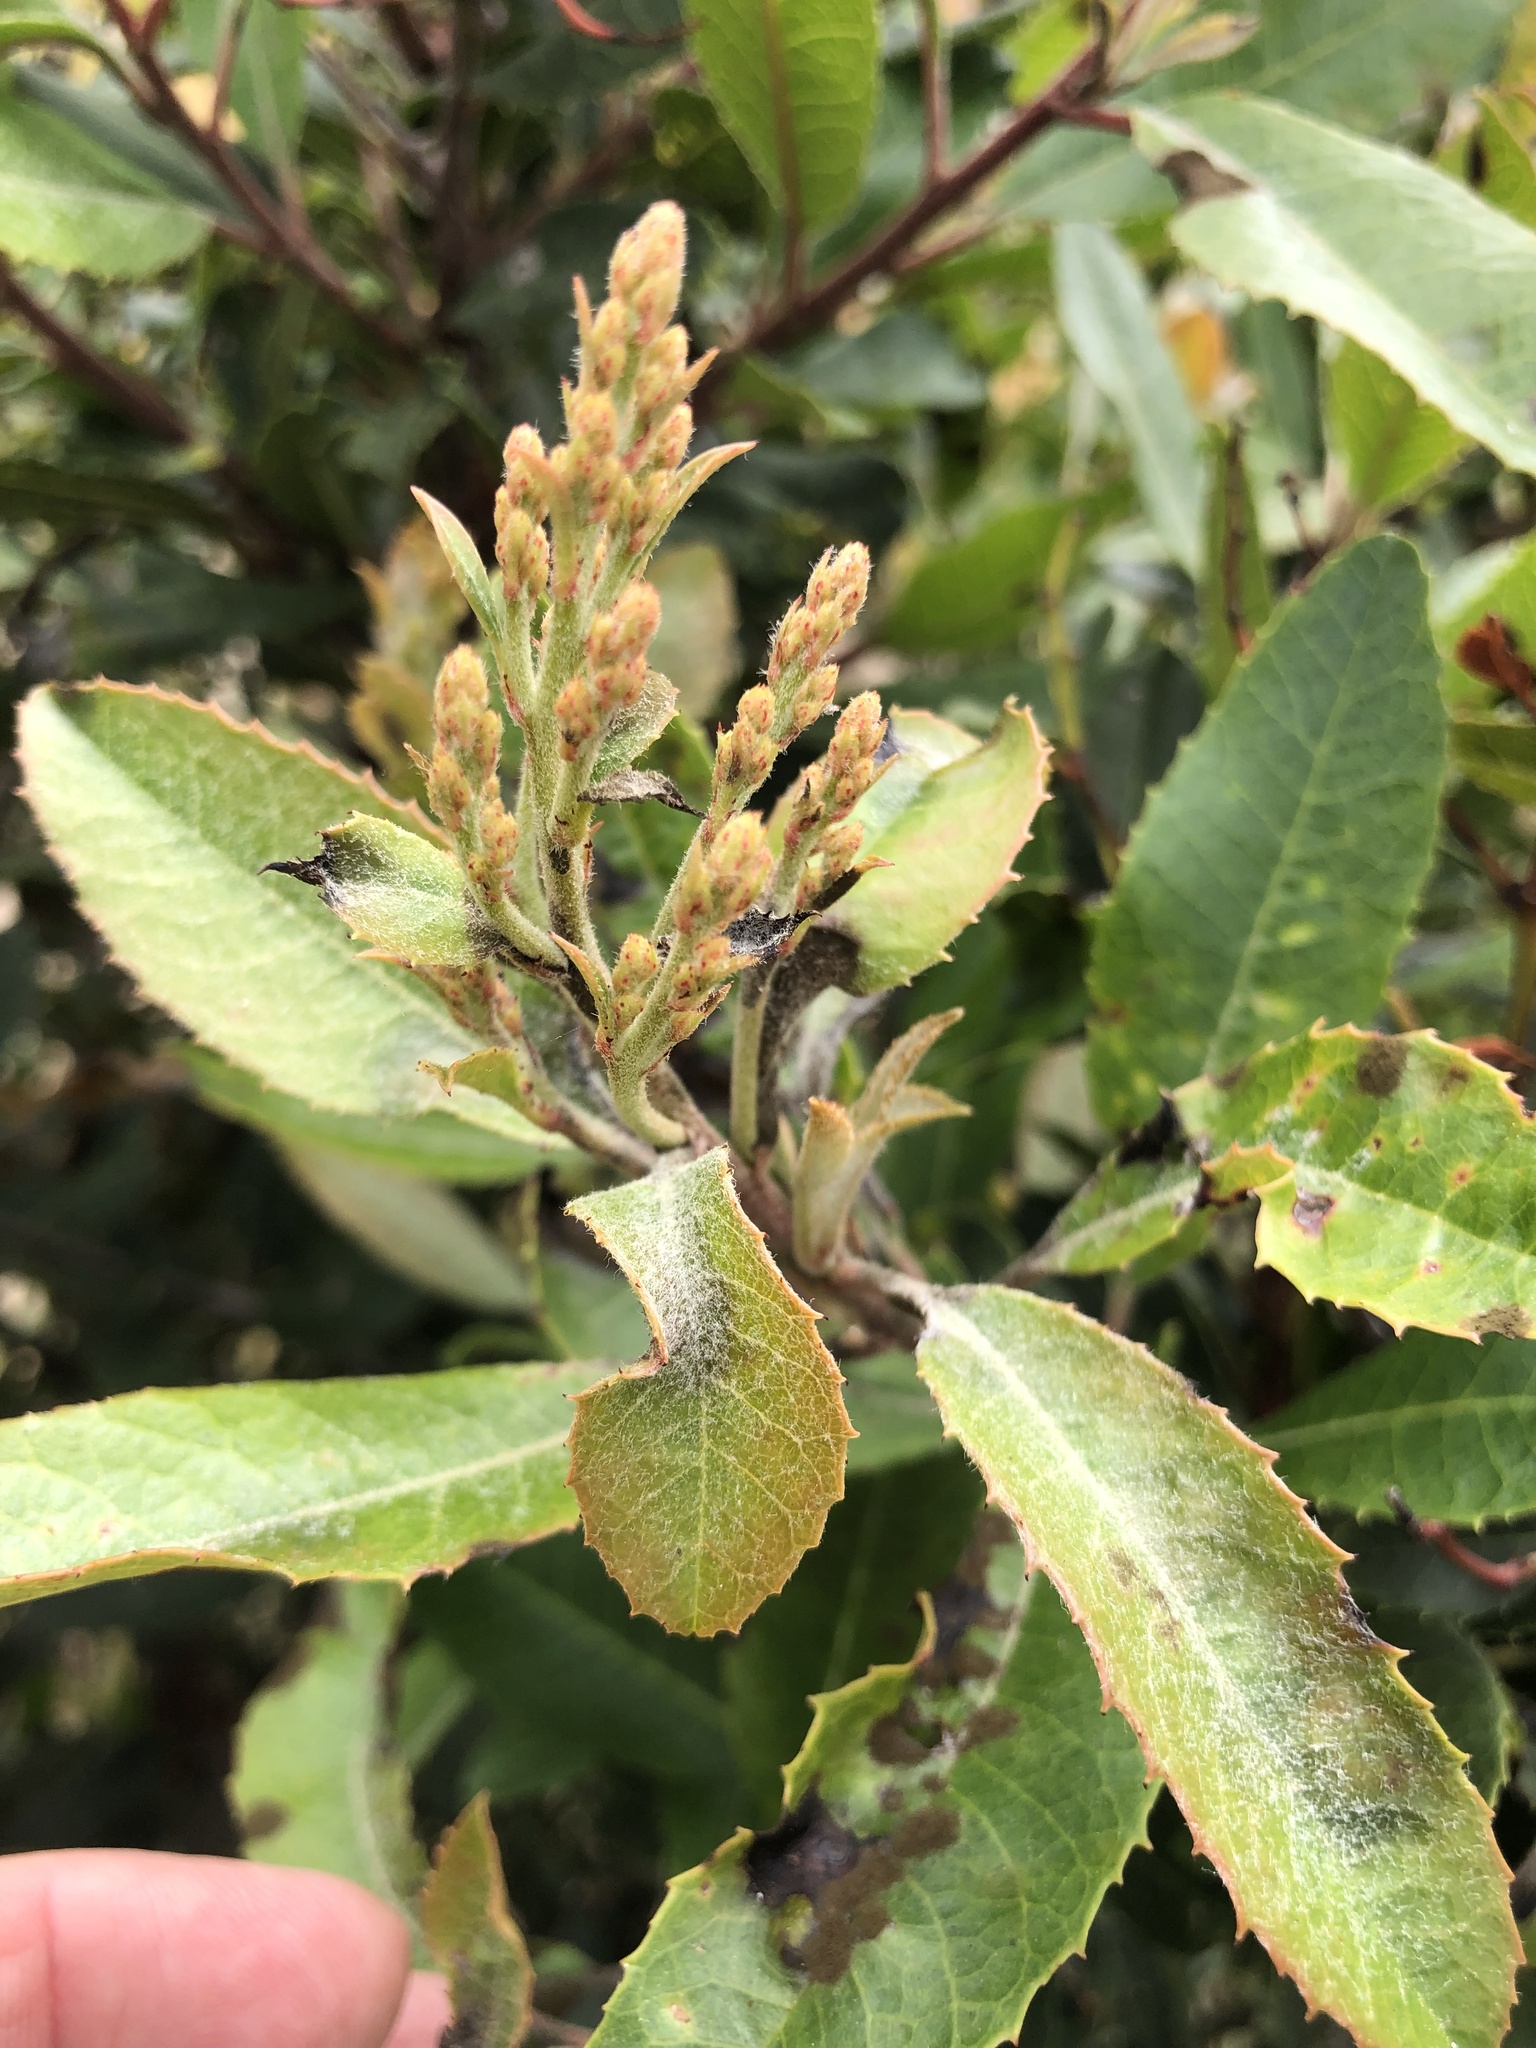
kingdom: Plantae
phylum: Tracheophyta
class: Magnoliopsida
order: Rosales
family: Rosaceae
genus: Heteromeles
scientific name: Heteromeles arbutifolia
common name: California-holly
